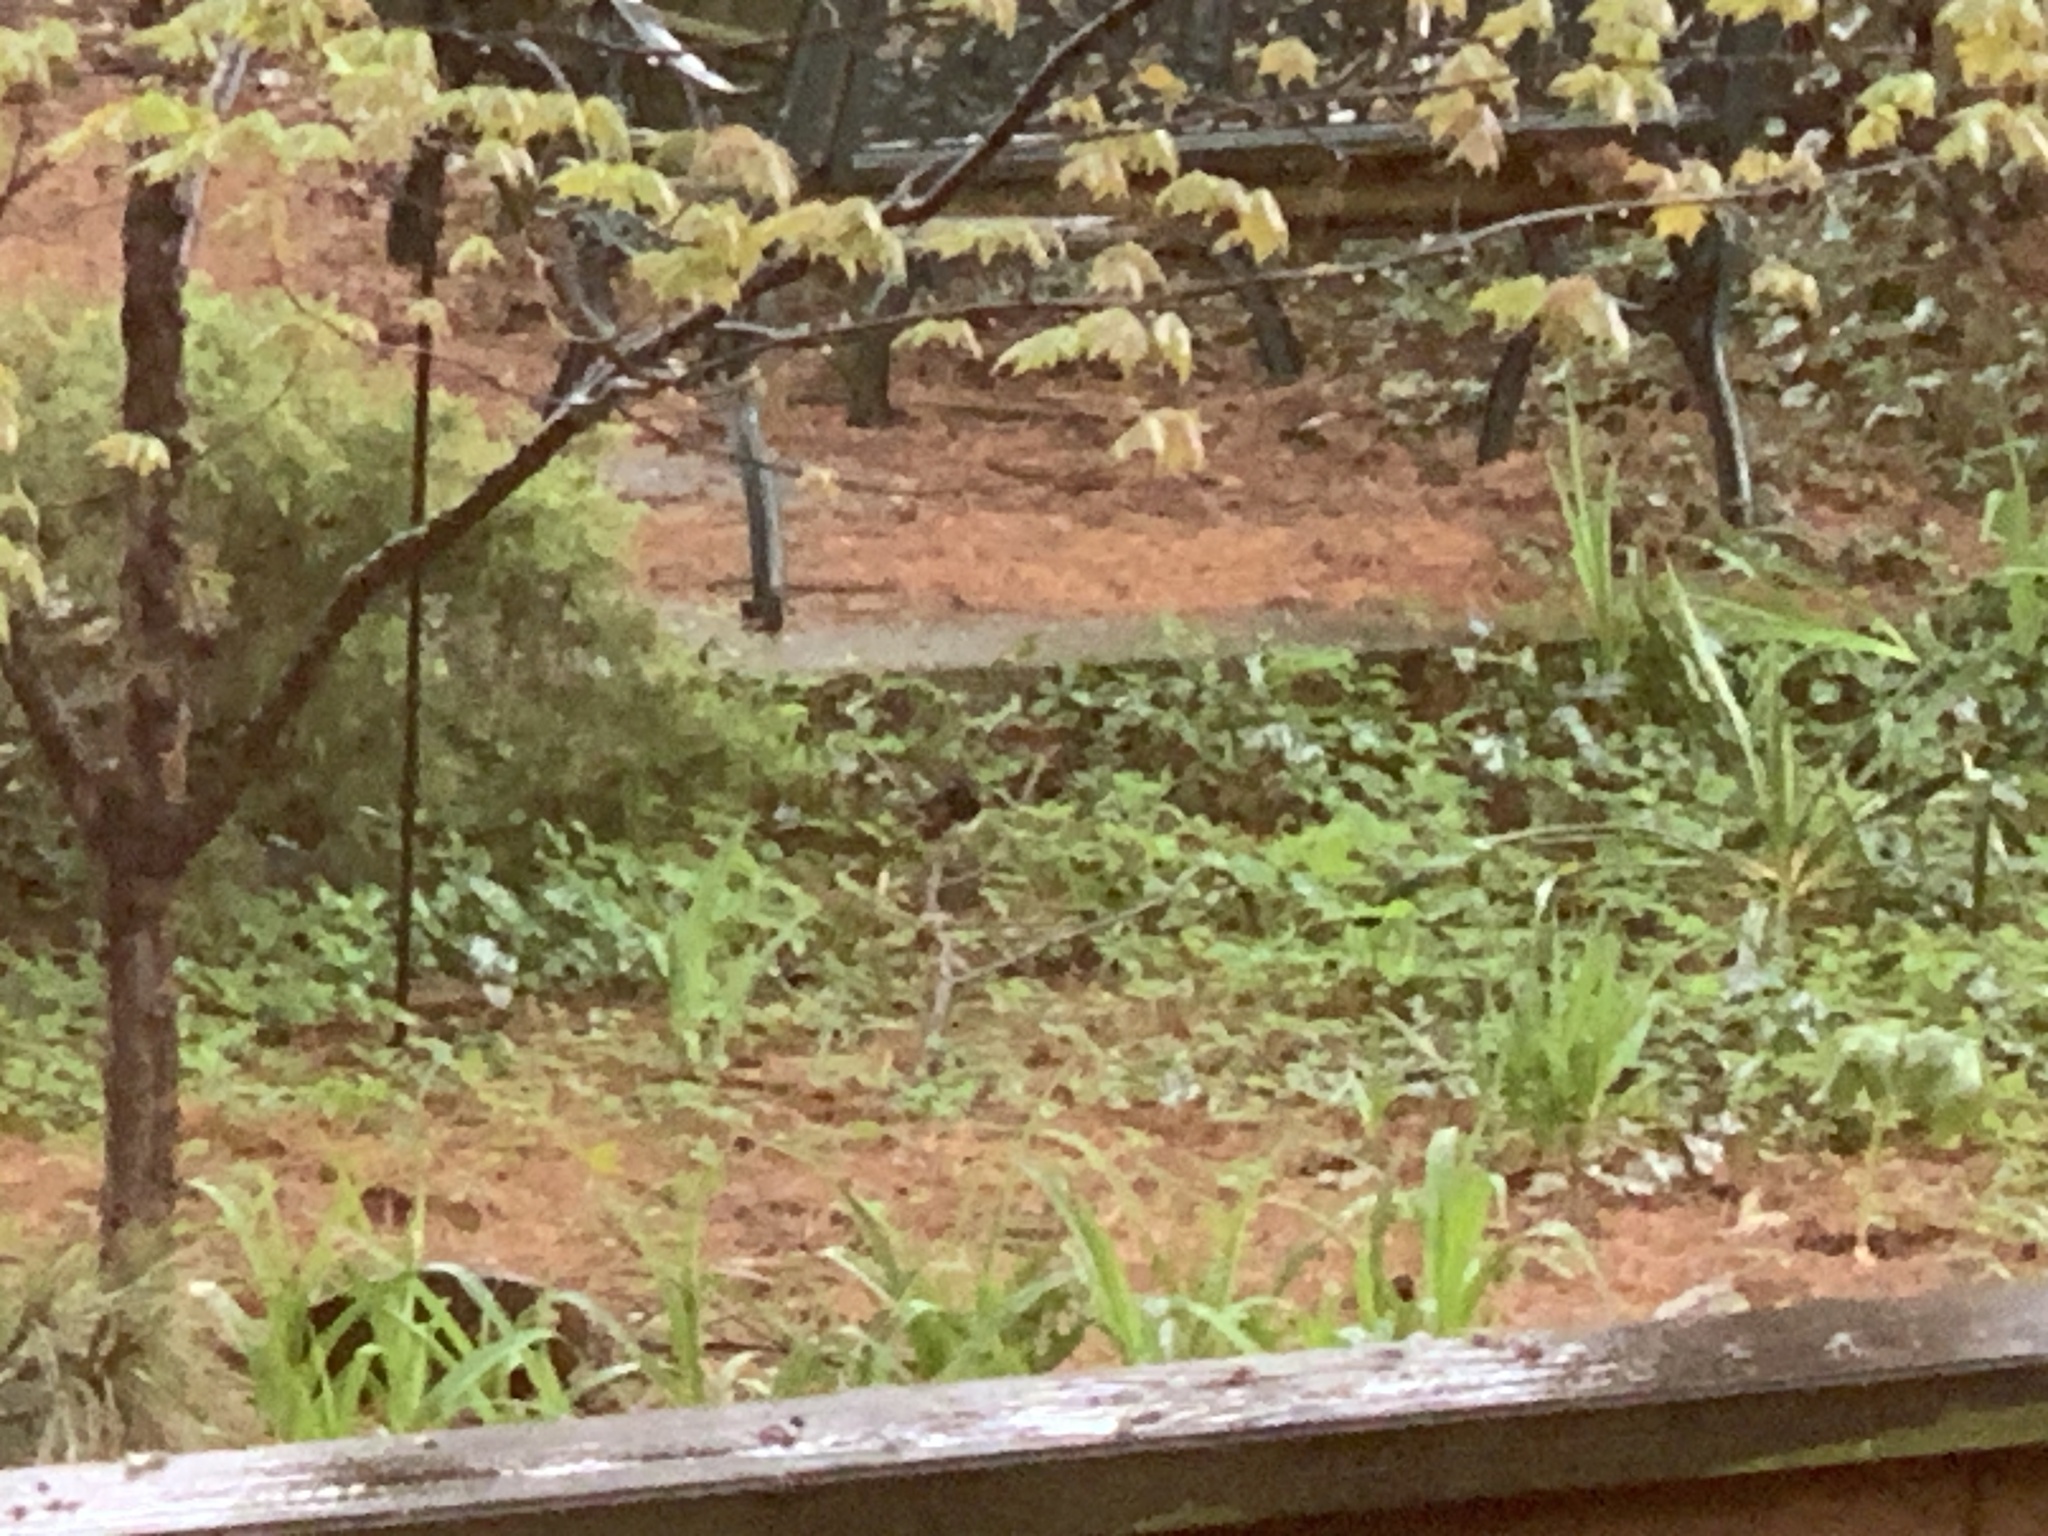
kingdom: Animalia
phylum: Chordata
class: Aves
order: Passeriformes
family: Passerellidae
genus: Pipilo
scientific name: Pipilo erythrophthalmus
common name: Eastern towhee
